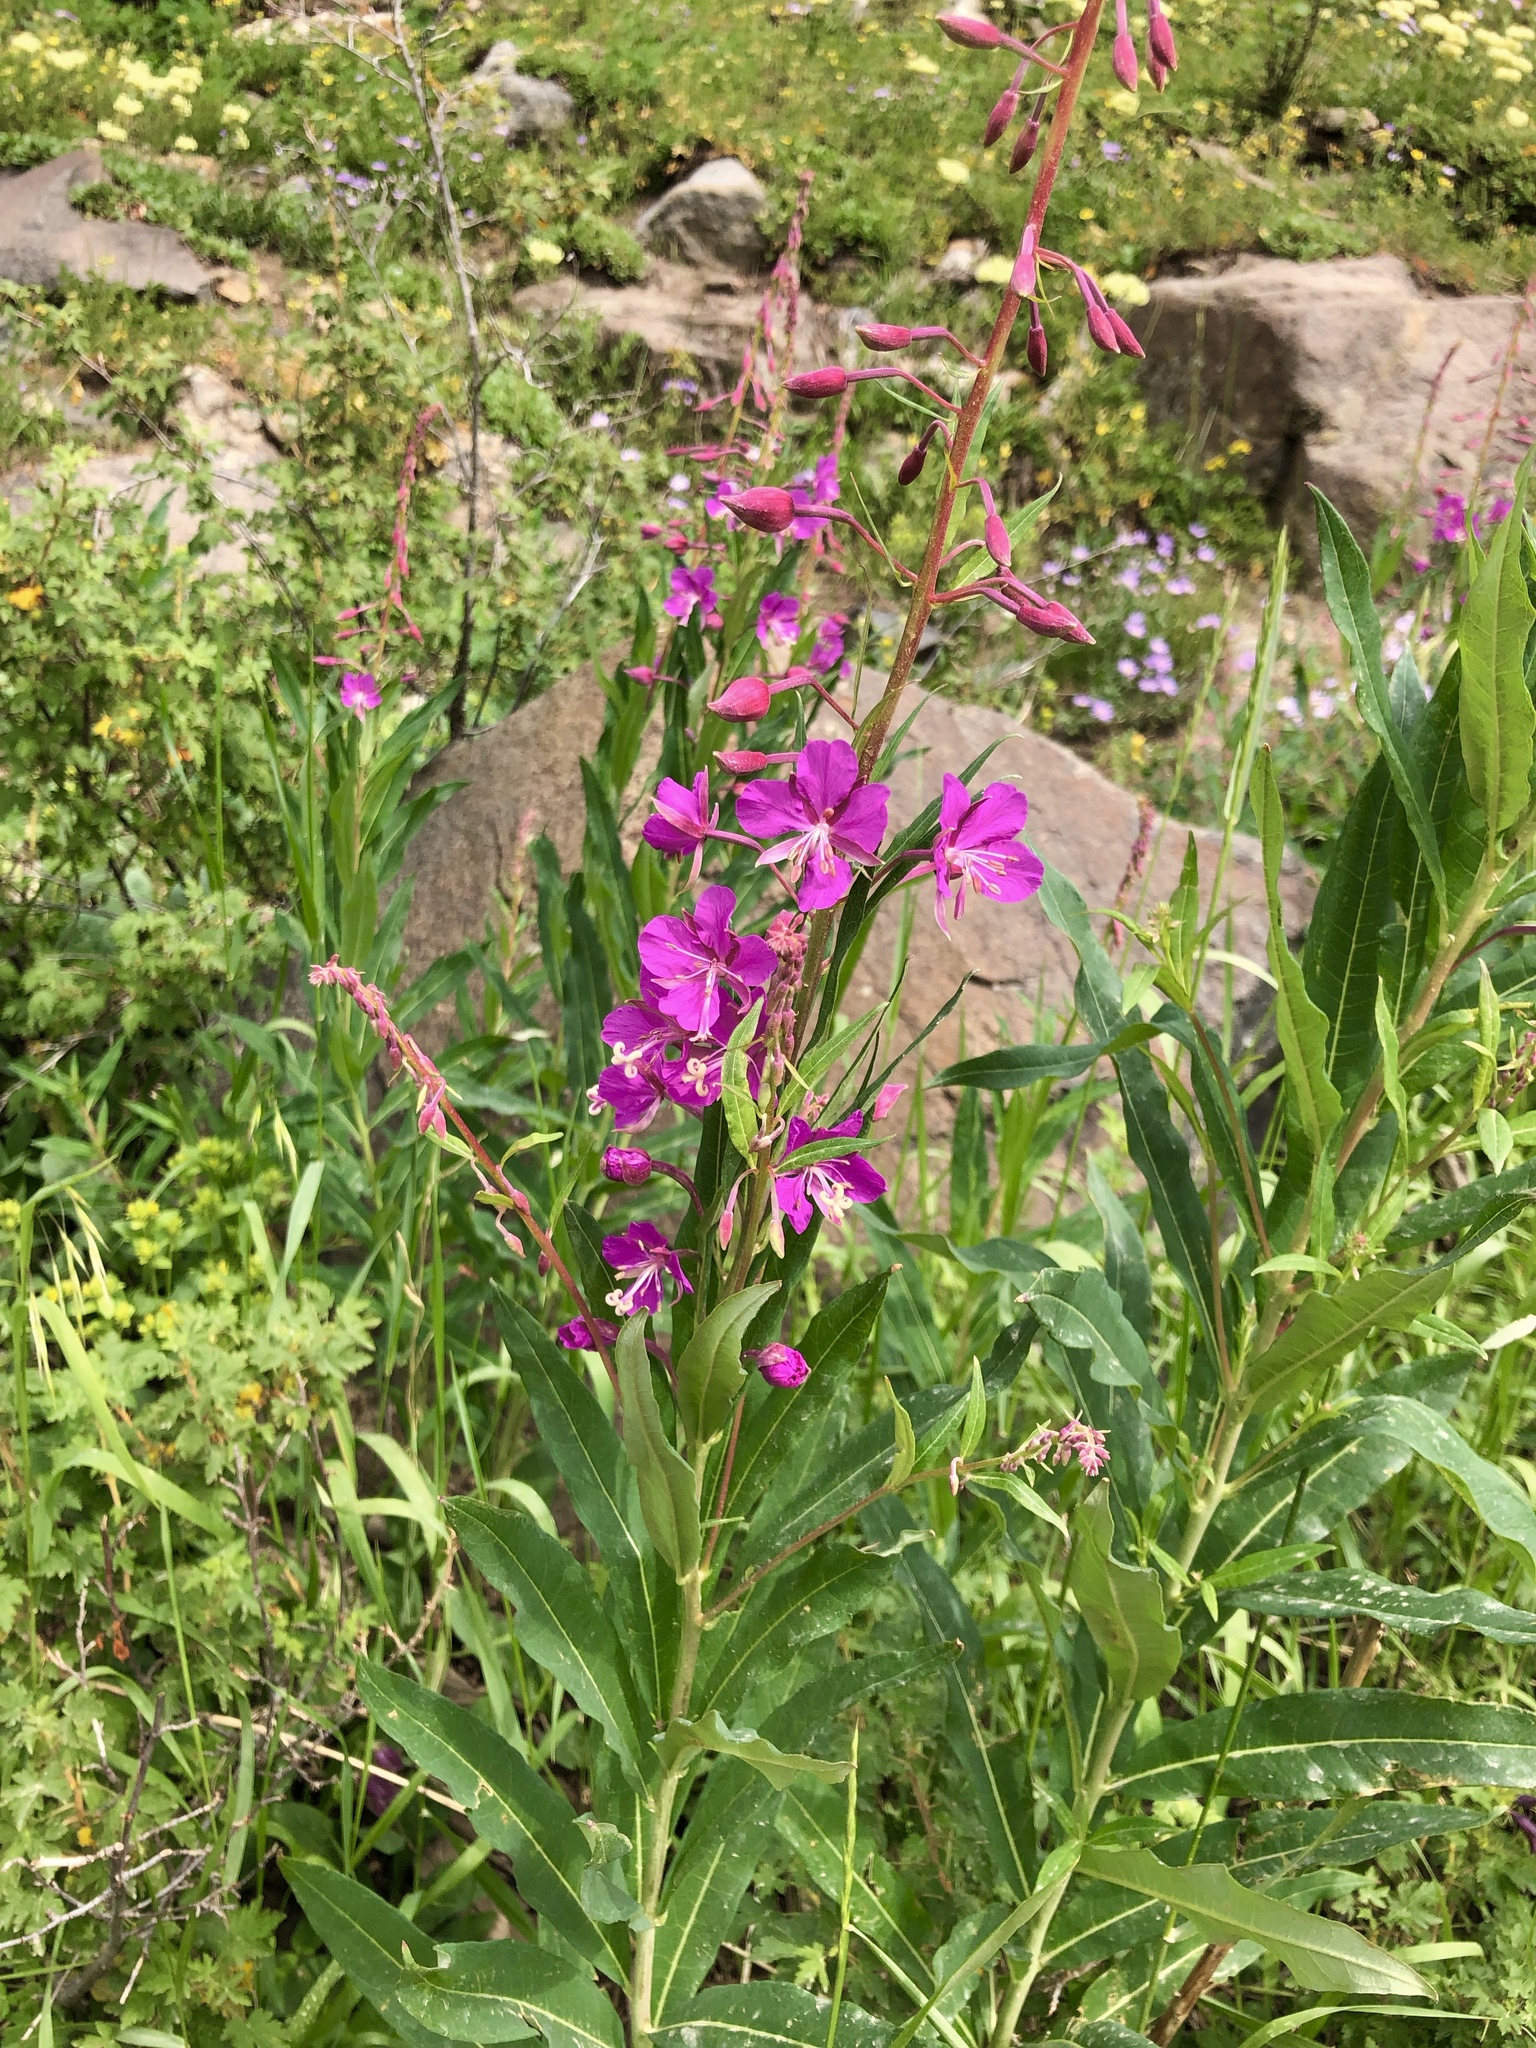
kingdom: Plantae
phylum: Tracheophyta
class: Magnoliopsida
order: Myrtales
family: Onagraceae
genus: Chamaenerion
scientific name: Chamaenerion angustifolium
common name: Fireweed
